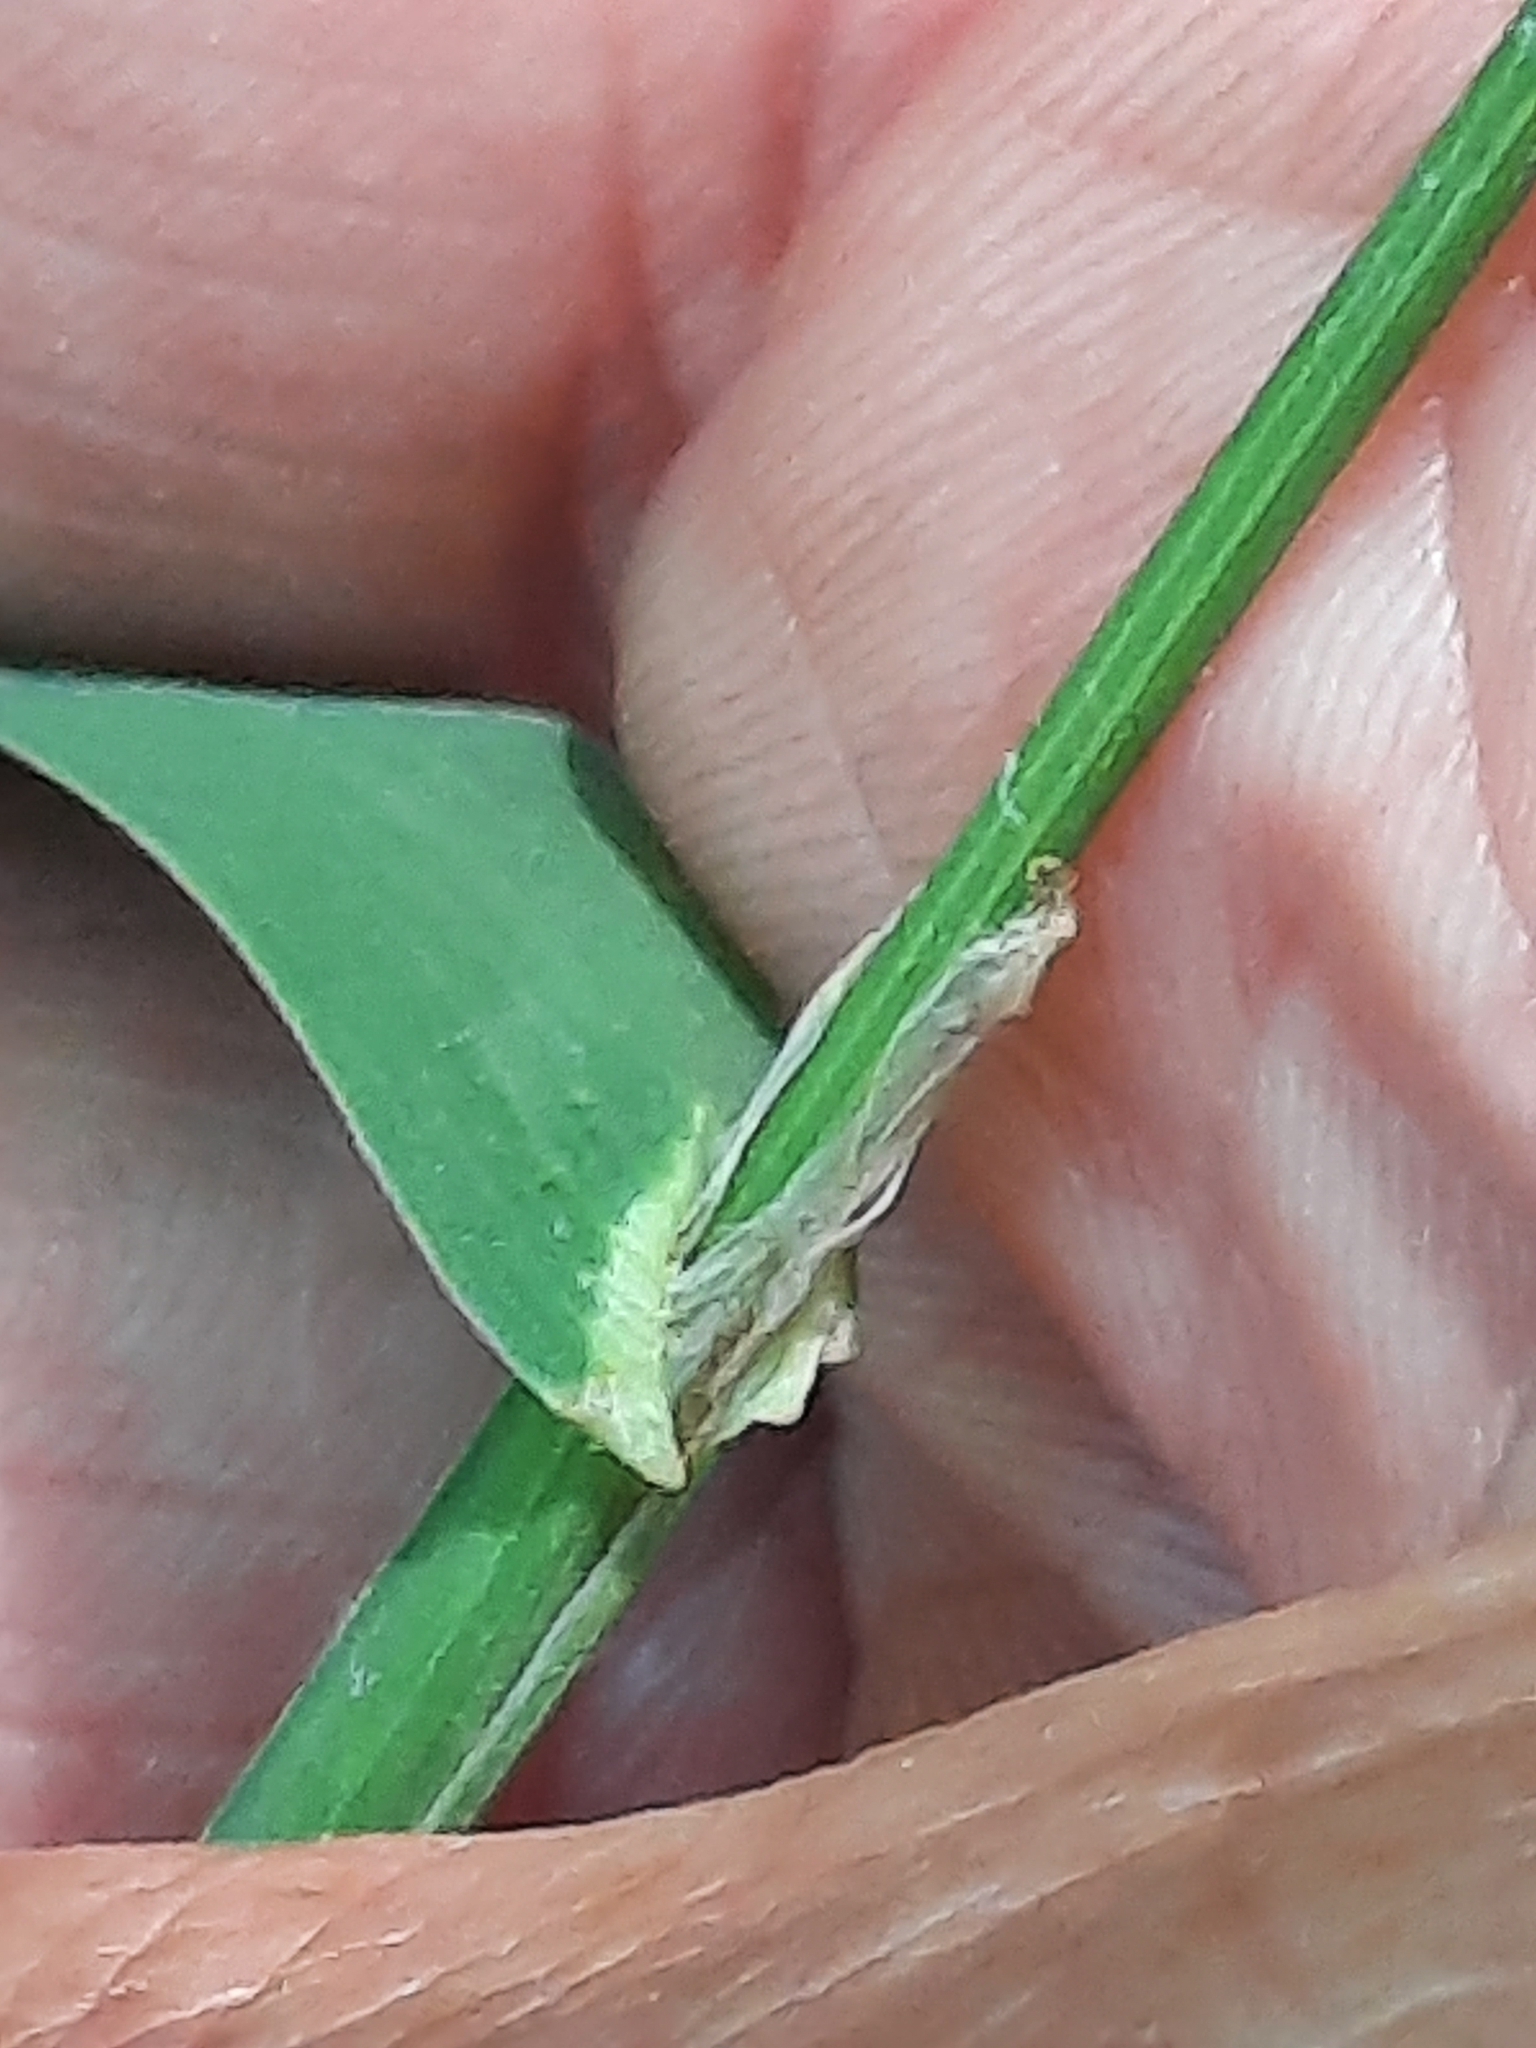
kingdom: Plantae
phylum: Tracheophyta
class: Liliopsida
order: Poales
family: Poaceae
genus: Dactylis
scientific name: Dactylis glomerata
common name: Orchardgrass
